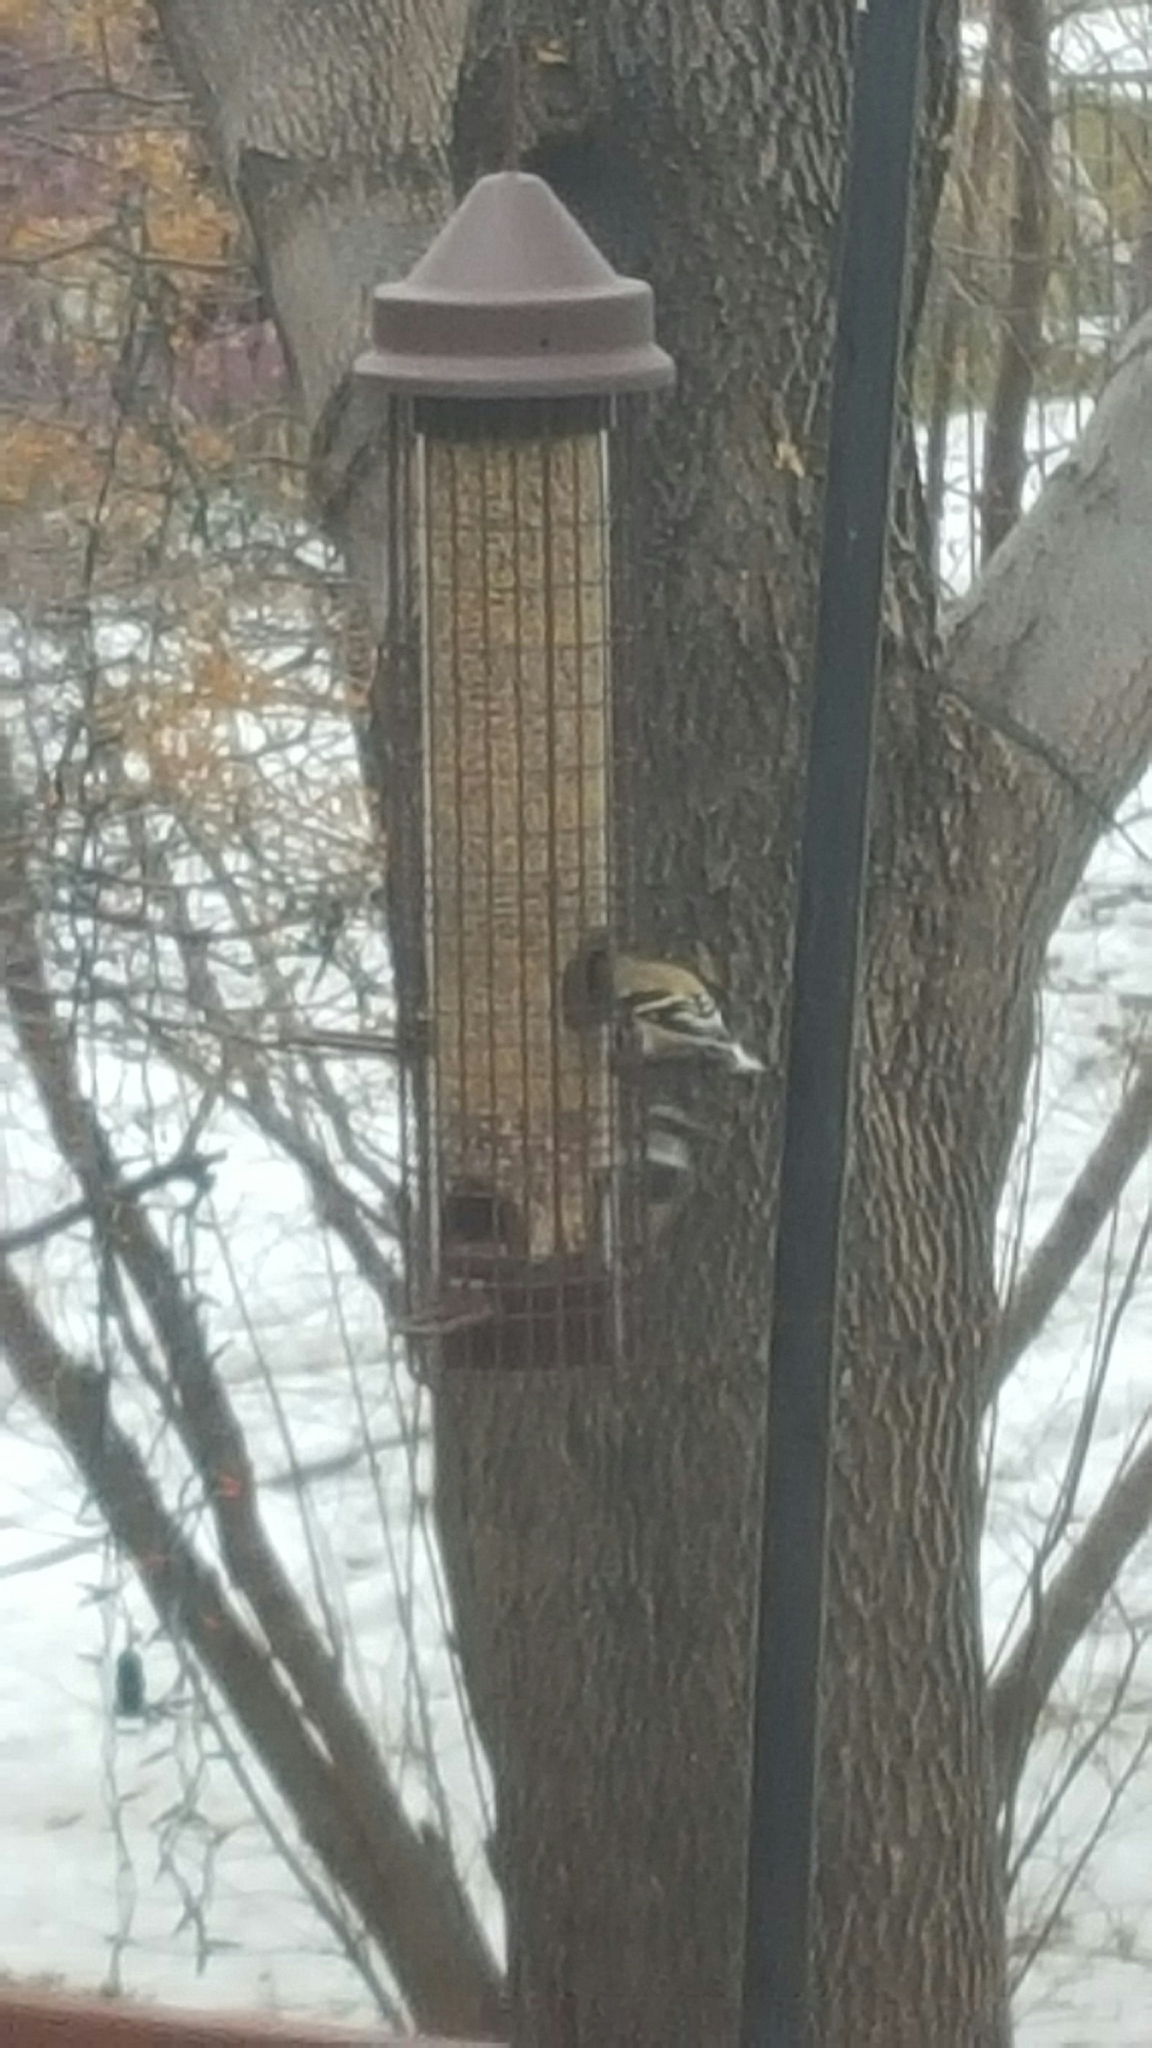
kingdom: Animalia
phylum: Chordata
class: Aves
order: Passeriformes
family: Passeridae
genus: Passer
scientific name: Passer domesticus
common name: House sparrow
